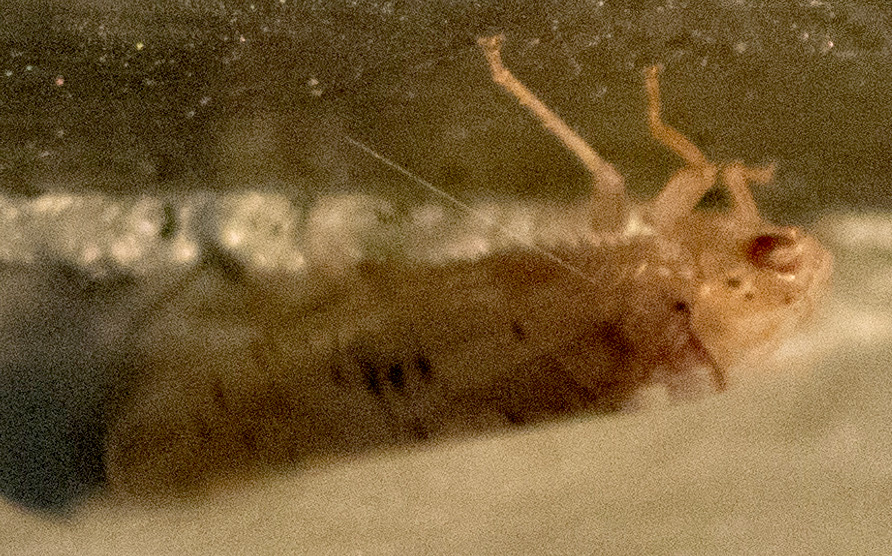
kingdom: Animalia
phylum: Arthropoda
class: Insecta
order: Hemiptera
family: Cicadellidae
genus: Ponana
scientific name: Ponana quadralaba
